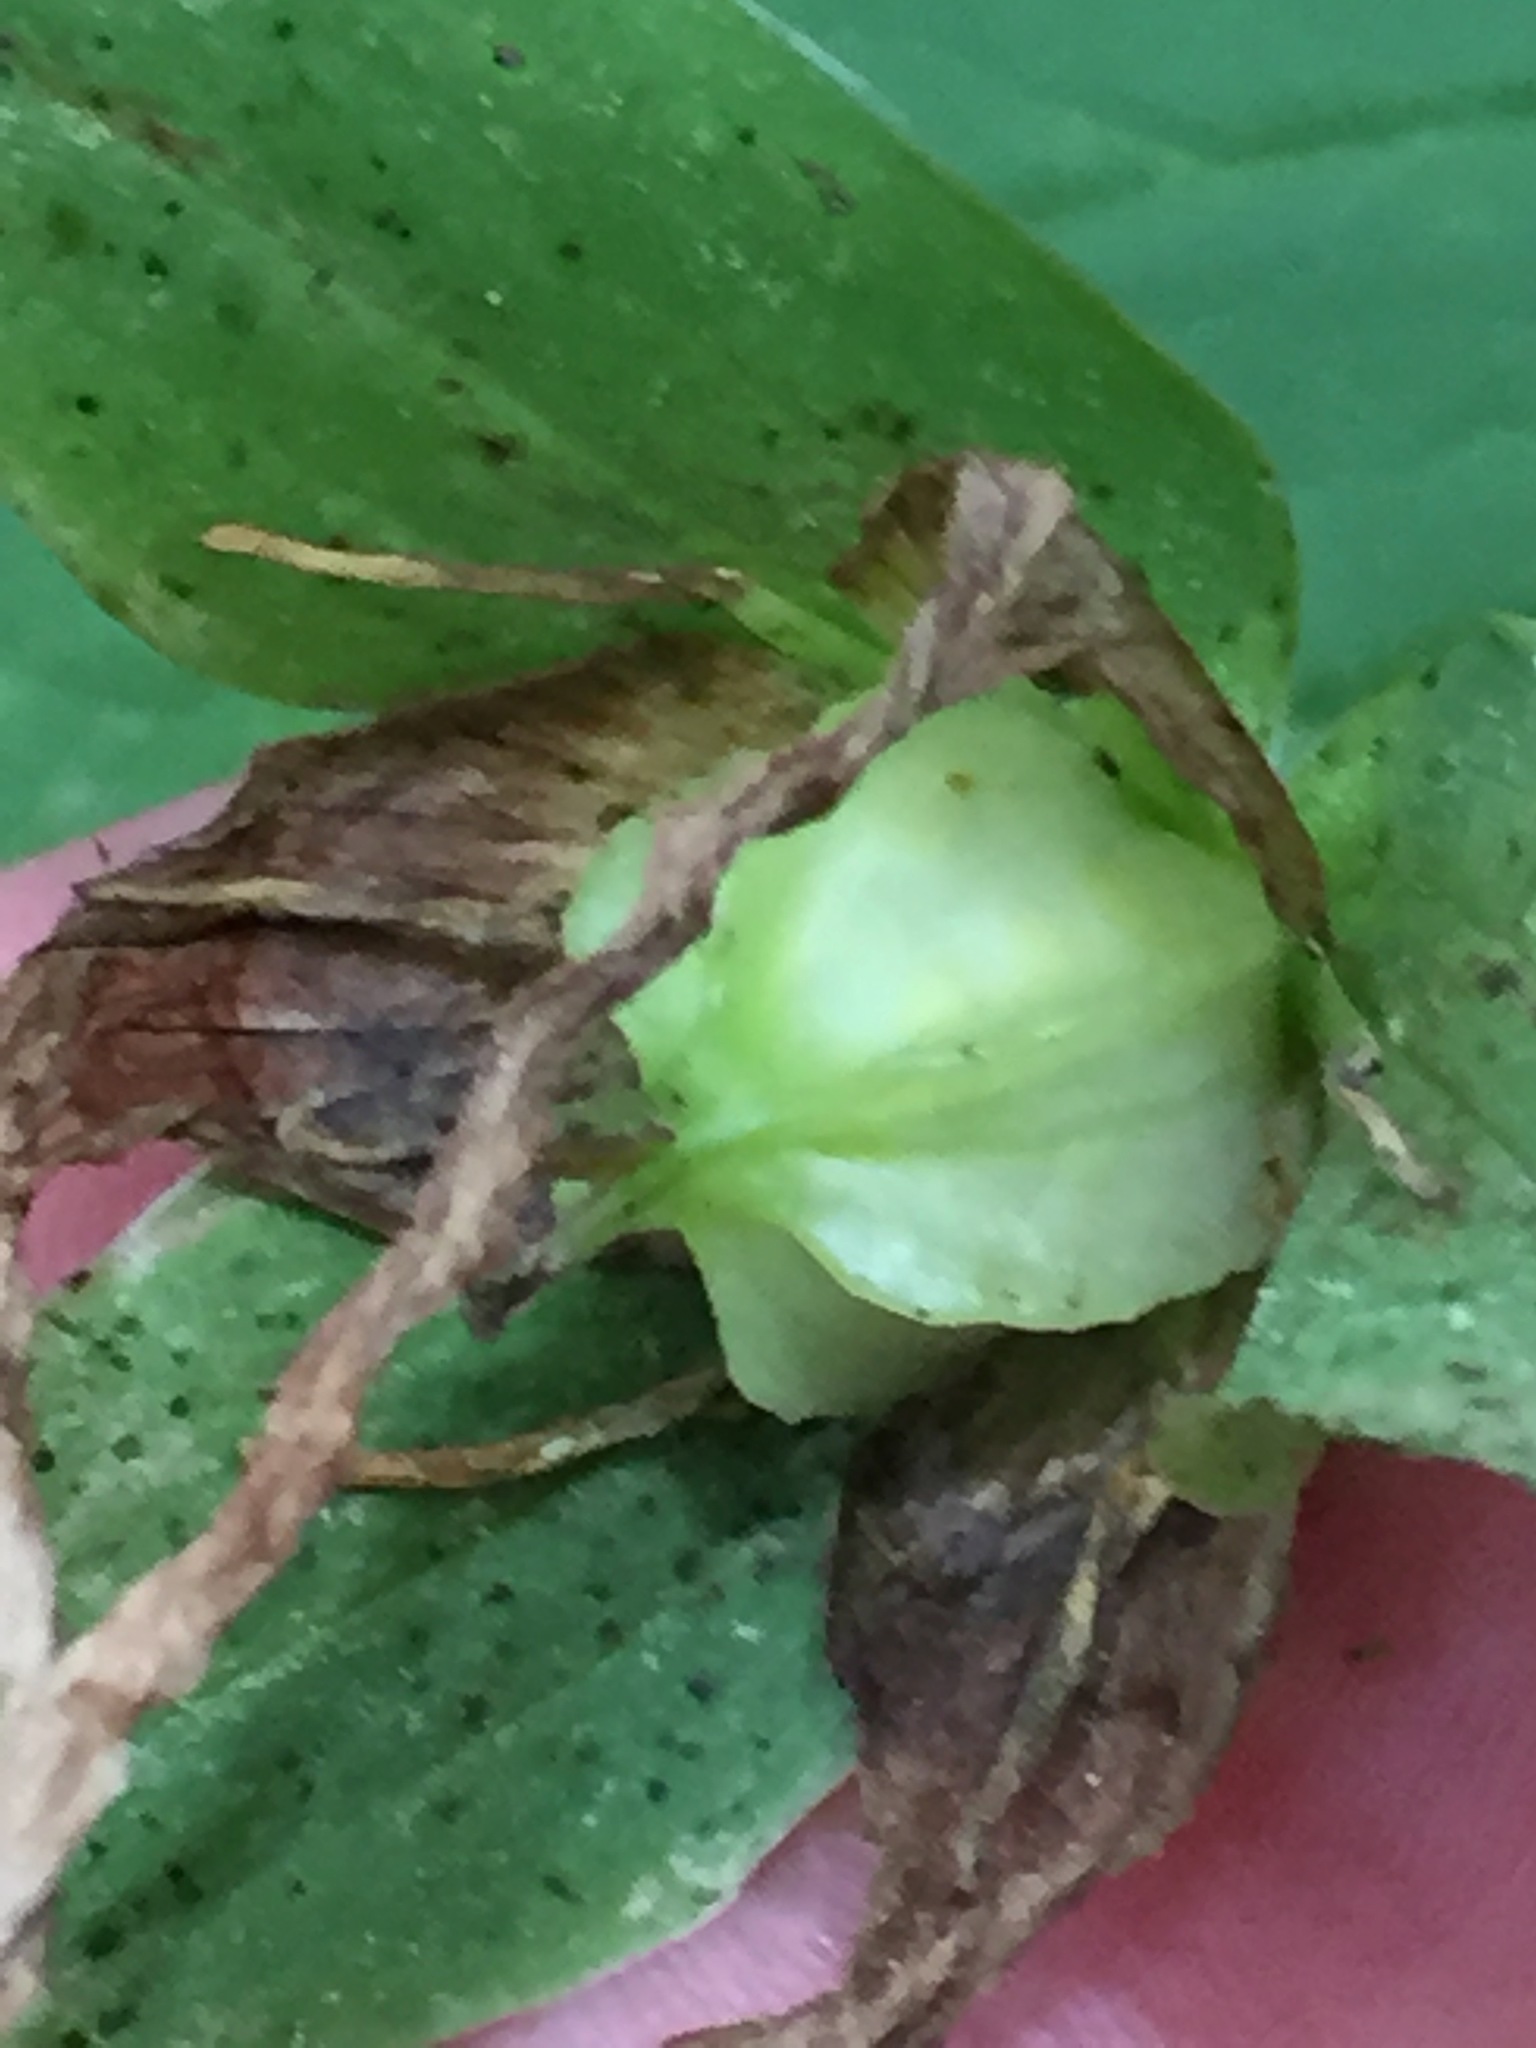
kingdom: Plantae
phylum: Tracheophyta
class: Liliopsida
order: Liliales
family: Melanthiaceae
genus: Trillium
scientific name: Trillium grandiflorum
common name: Great white trillium
